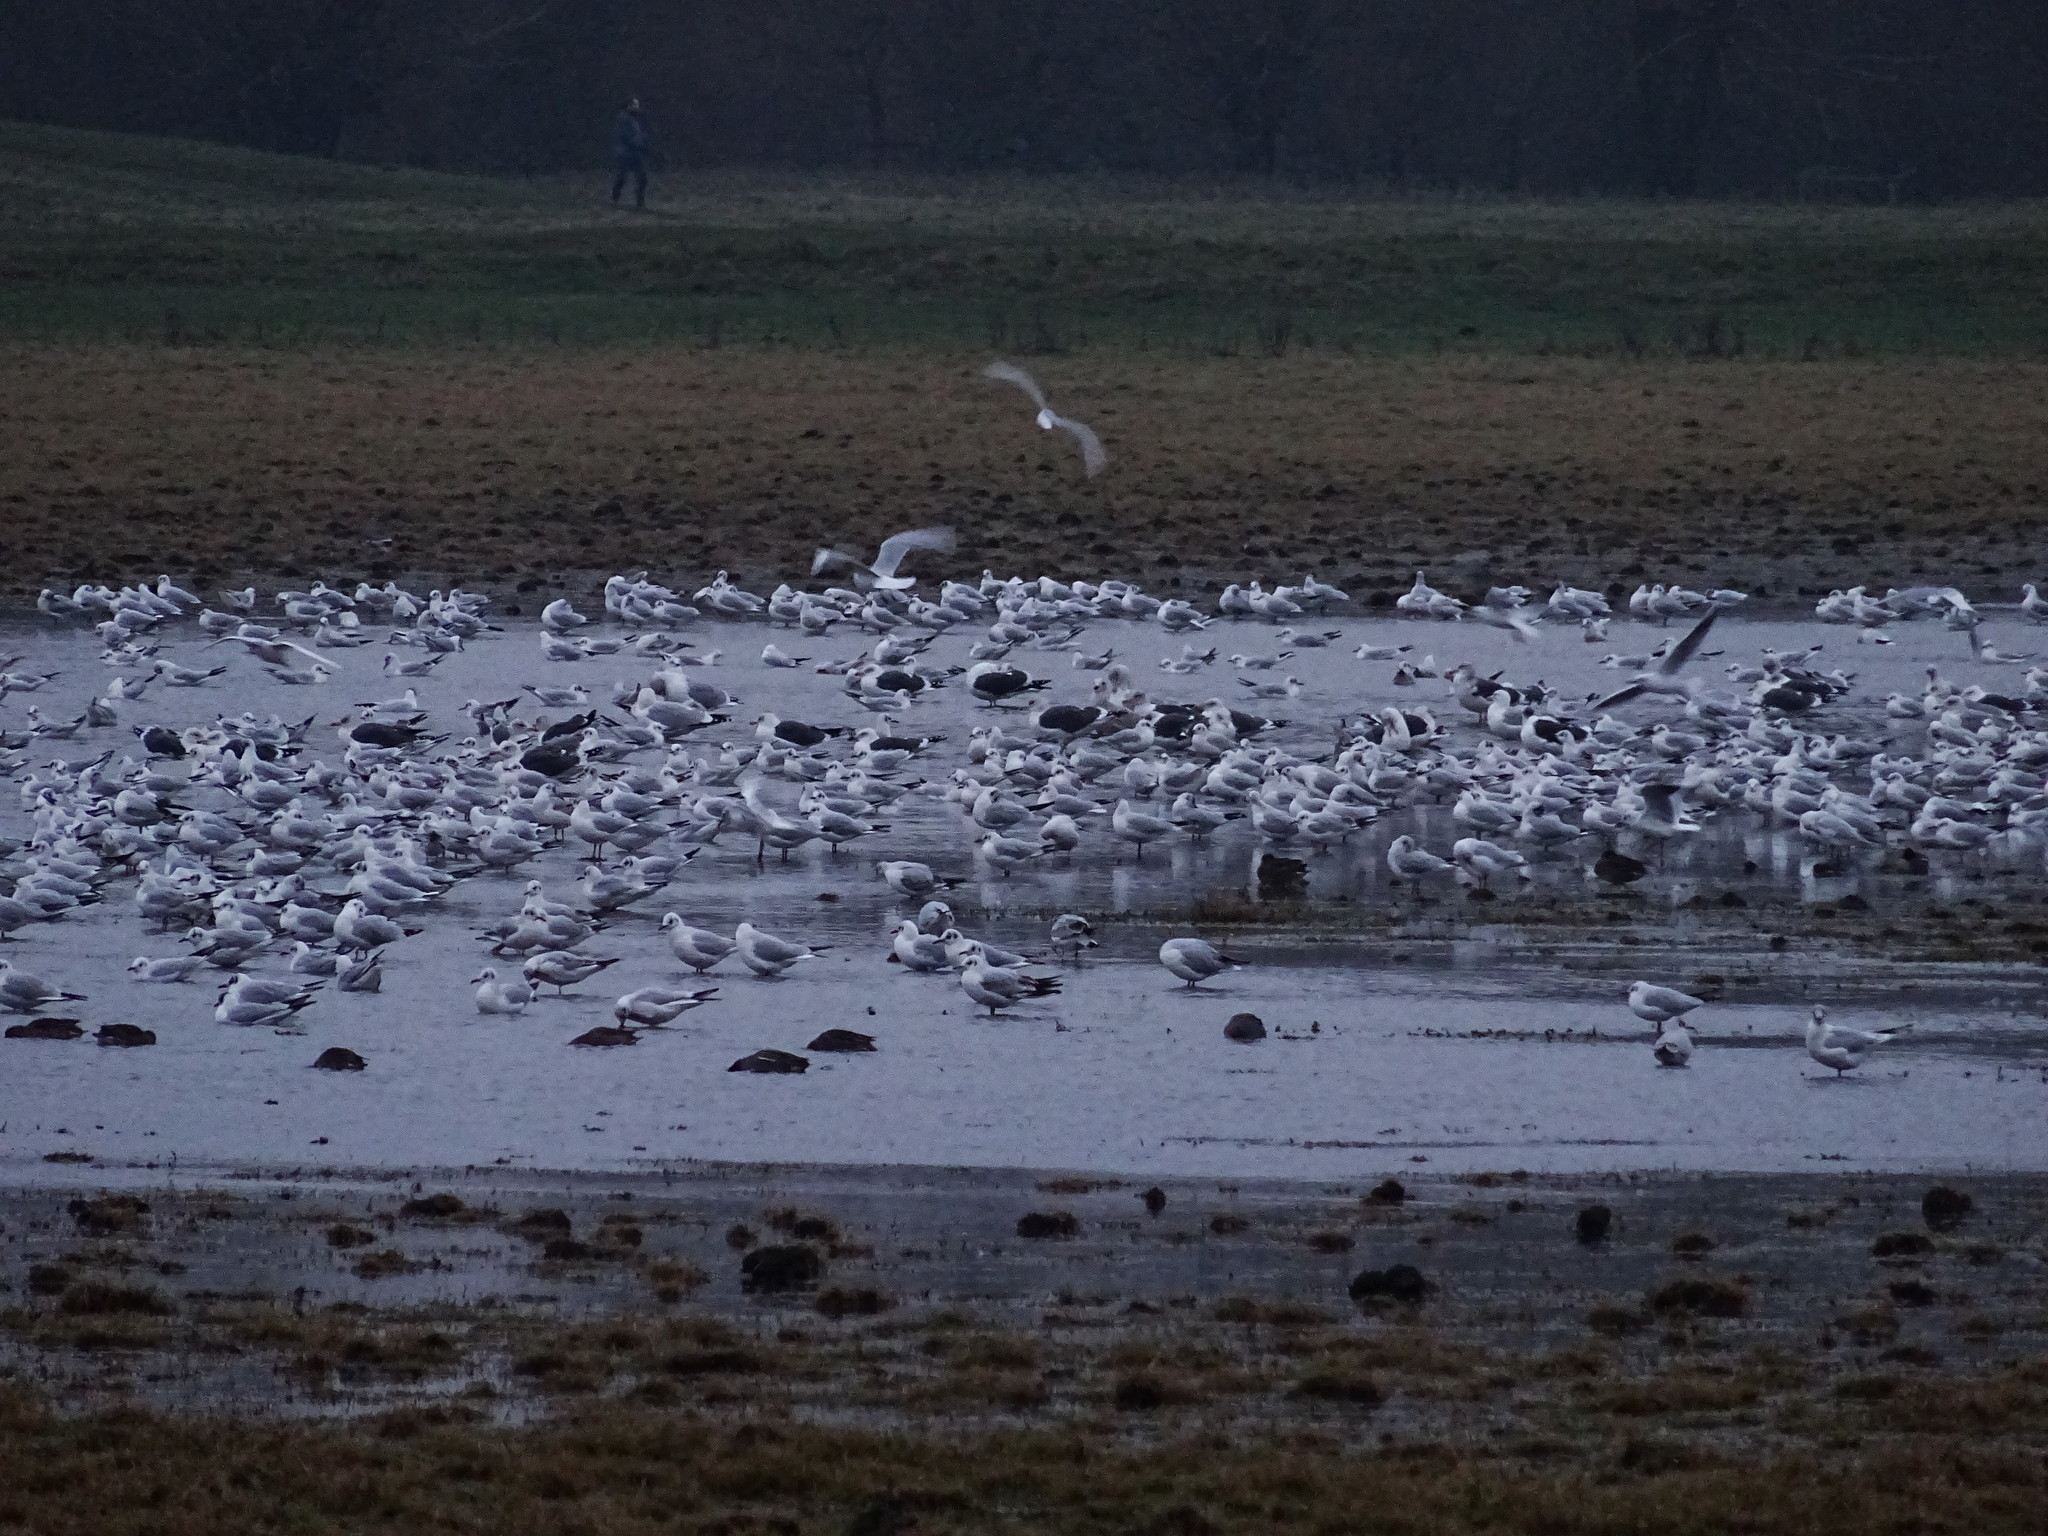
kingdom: Animalia
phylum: Chordata
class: Aves
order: Charadriiformes
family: Laridae
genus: Chroicocephalus
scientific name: Chroicocephalus ridibundus
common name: Black-headed gull
